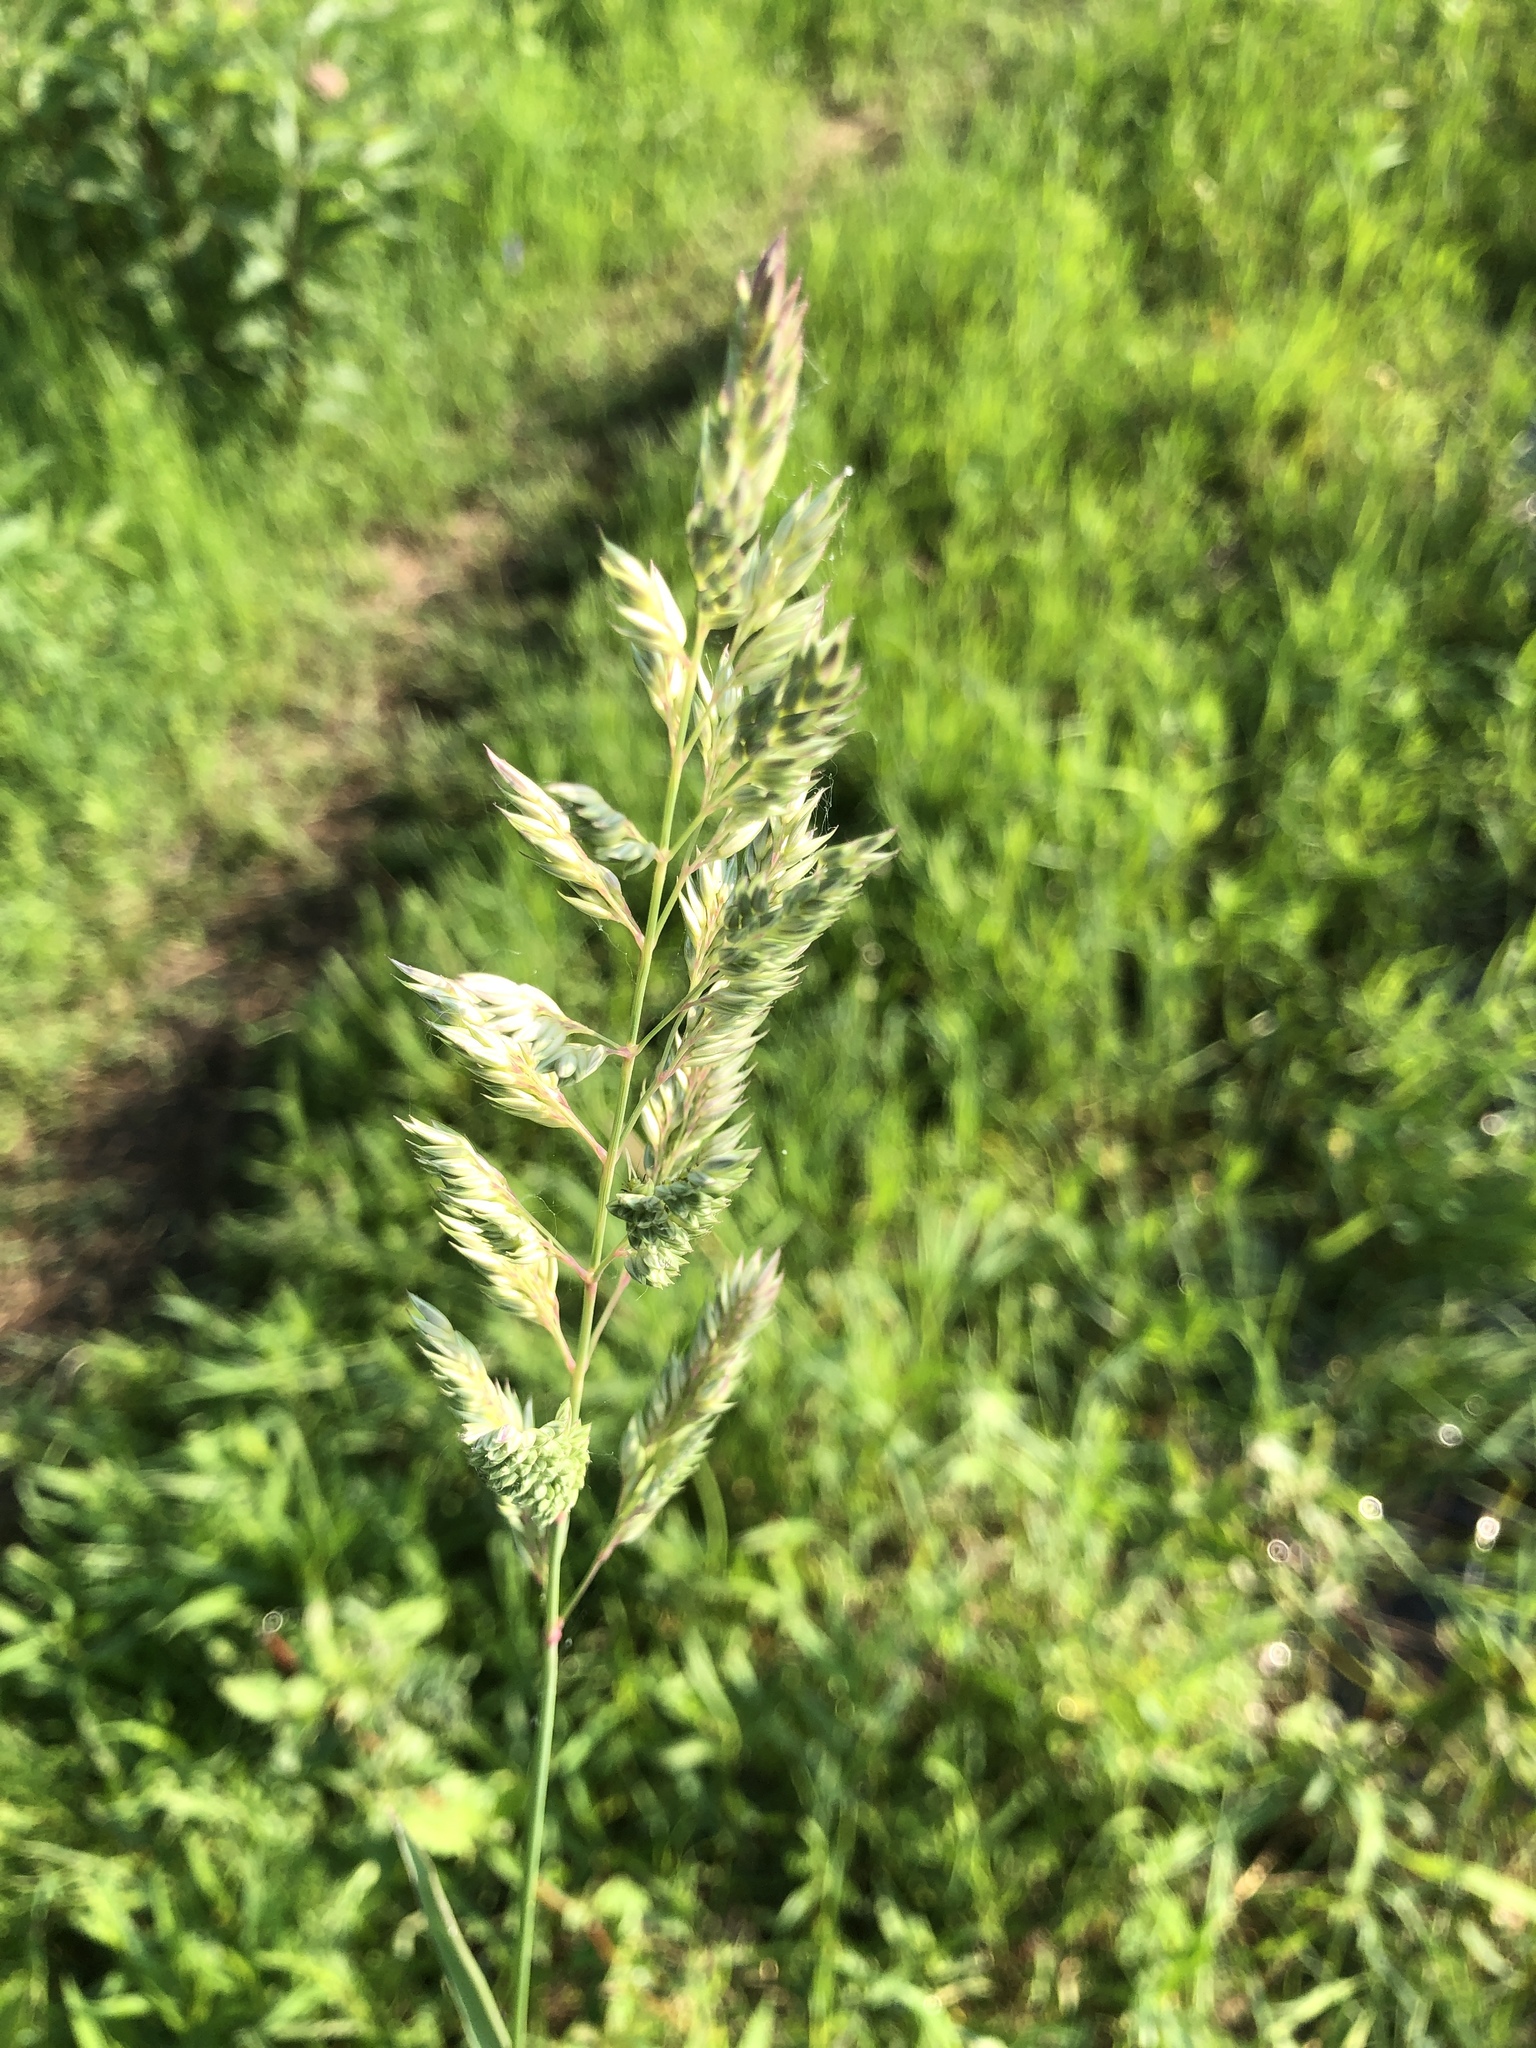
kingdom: Plantae
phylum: Tracheophyta
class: Liliopsida
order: Poales
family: Poaceae
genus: Phalaris
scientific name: Phalaris arundinacea
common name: Reed canary-grass
